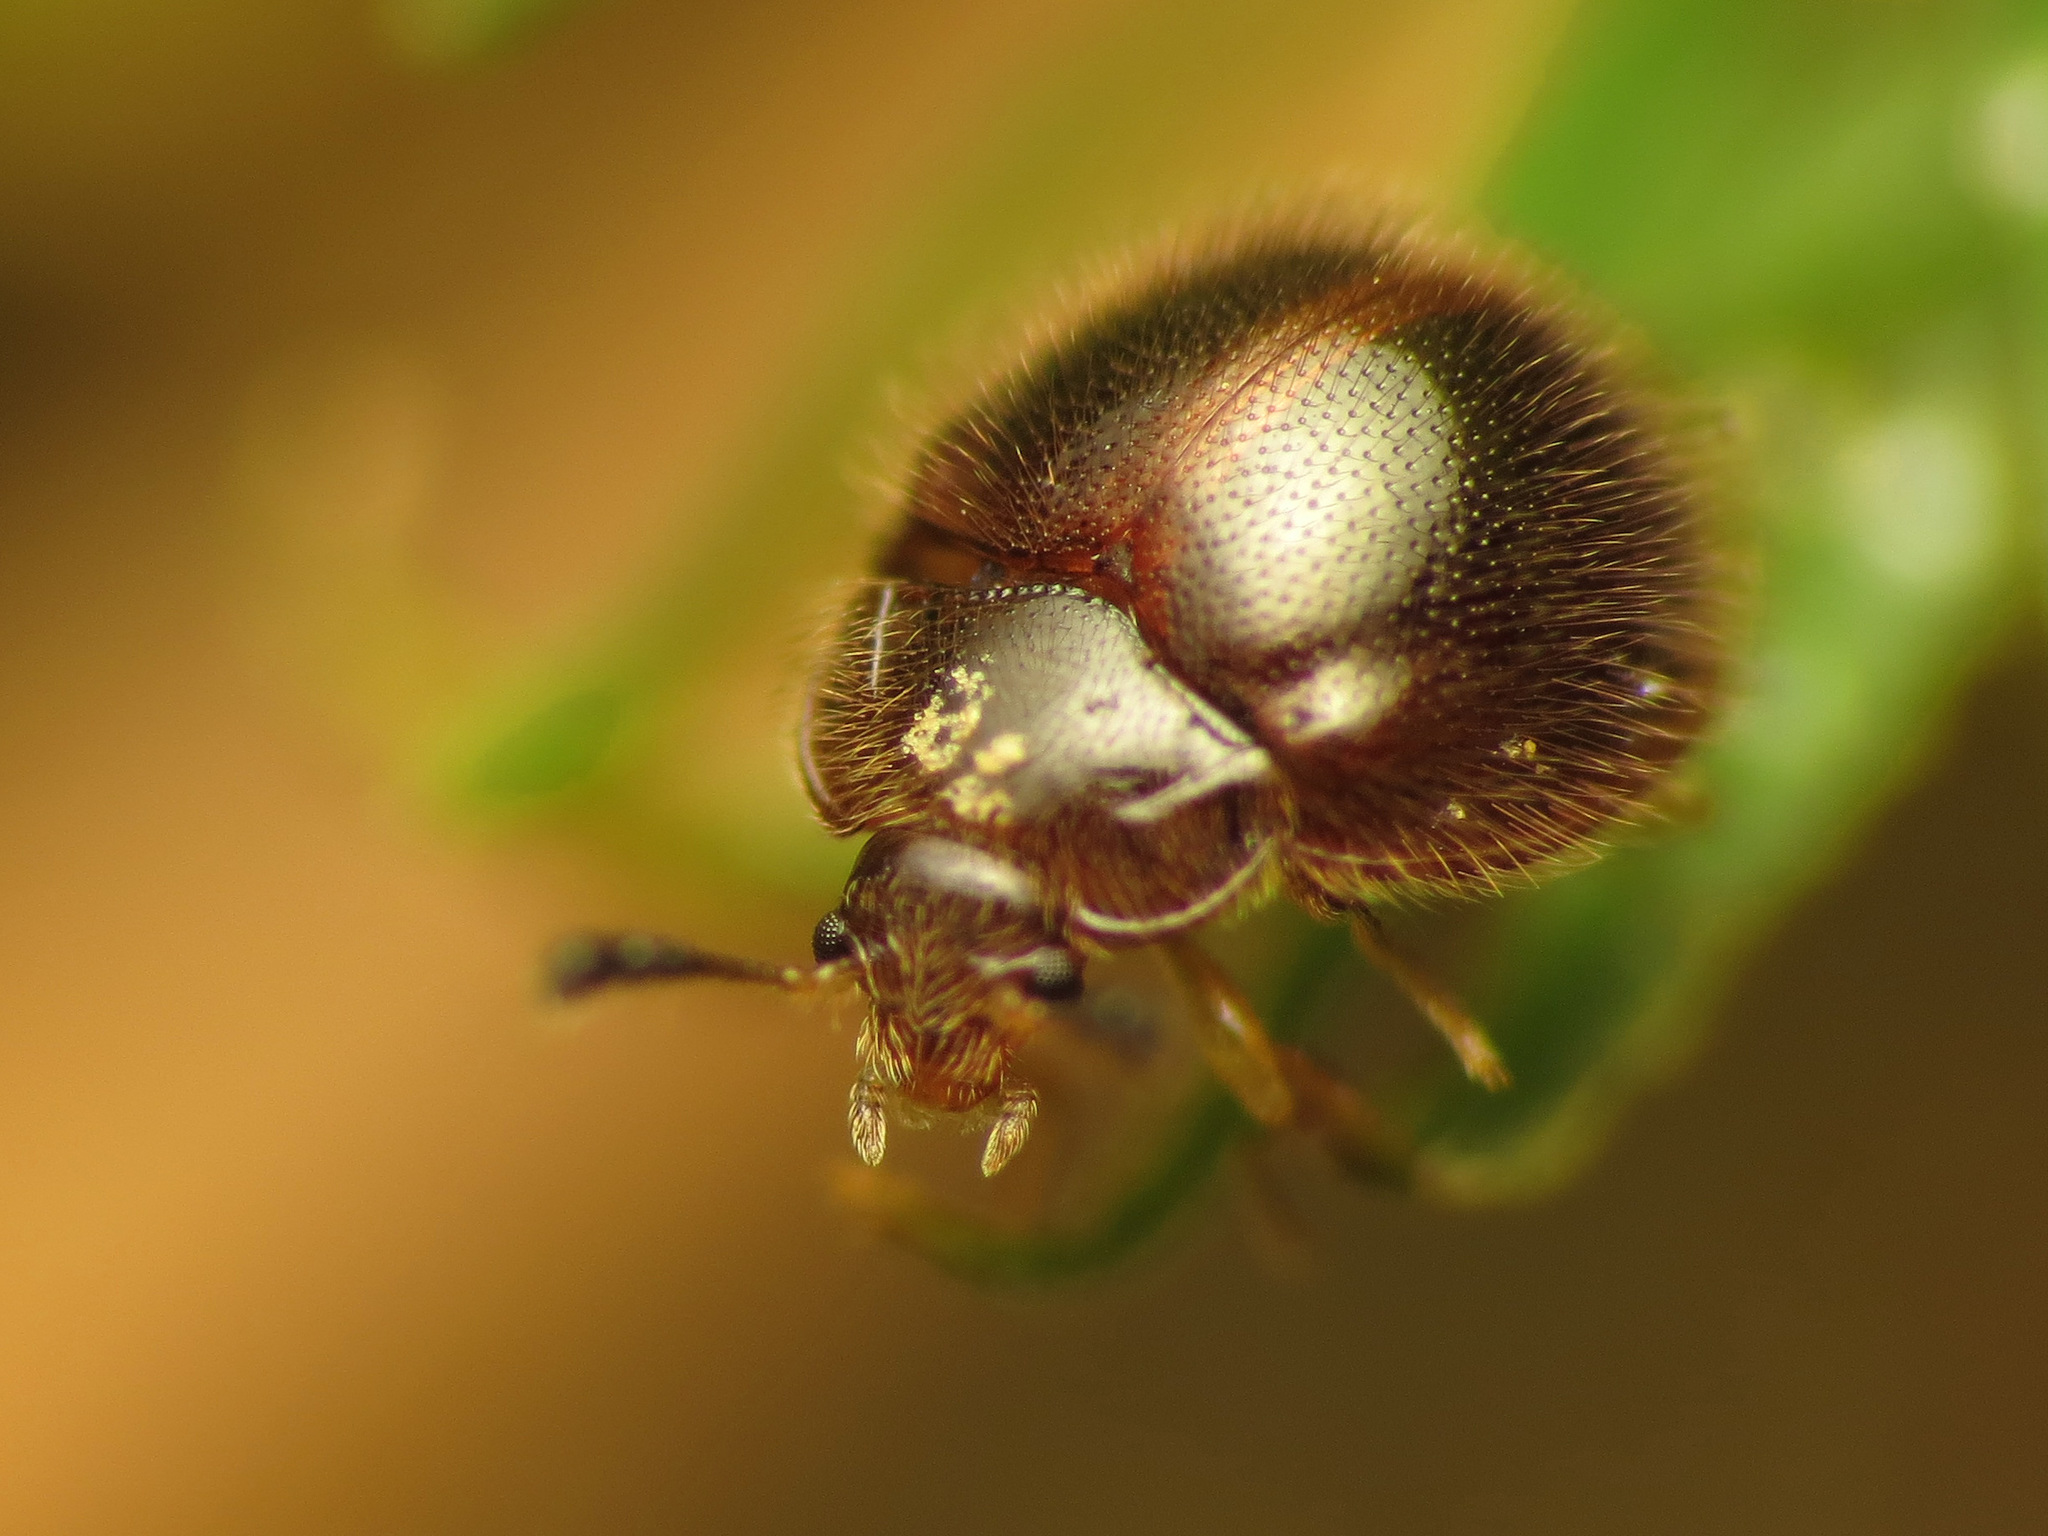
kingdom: Animalia
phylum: Arthropoda
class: Insecta
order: Coleoptera
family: Anamorphidae
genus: Bystus
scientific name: Bystus ulkei
